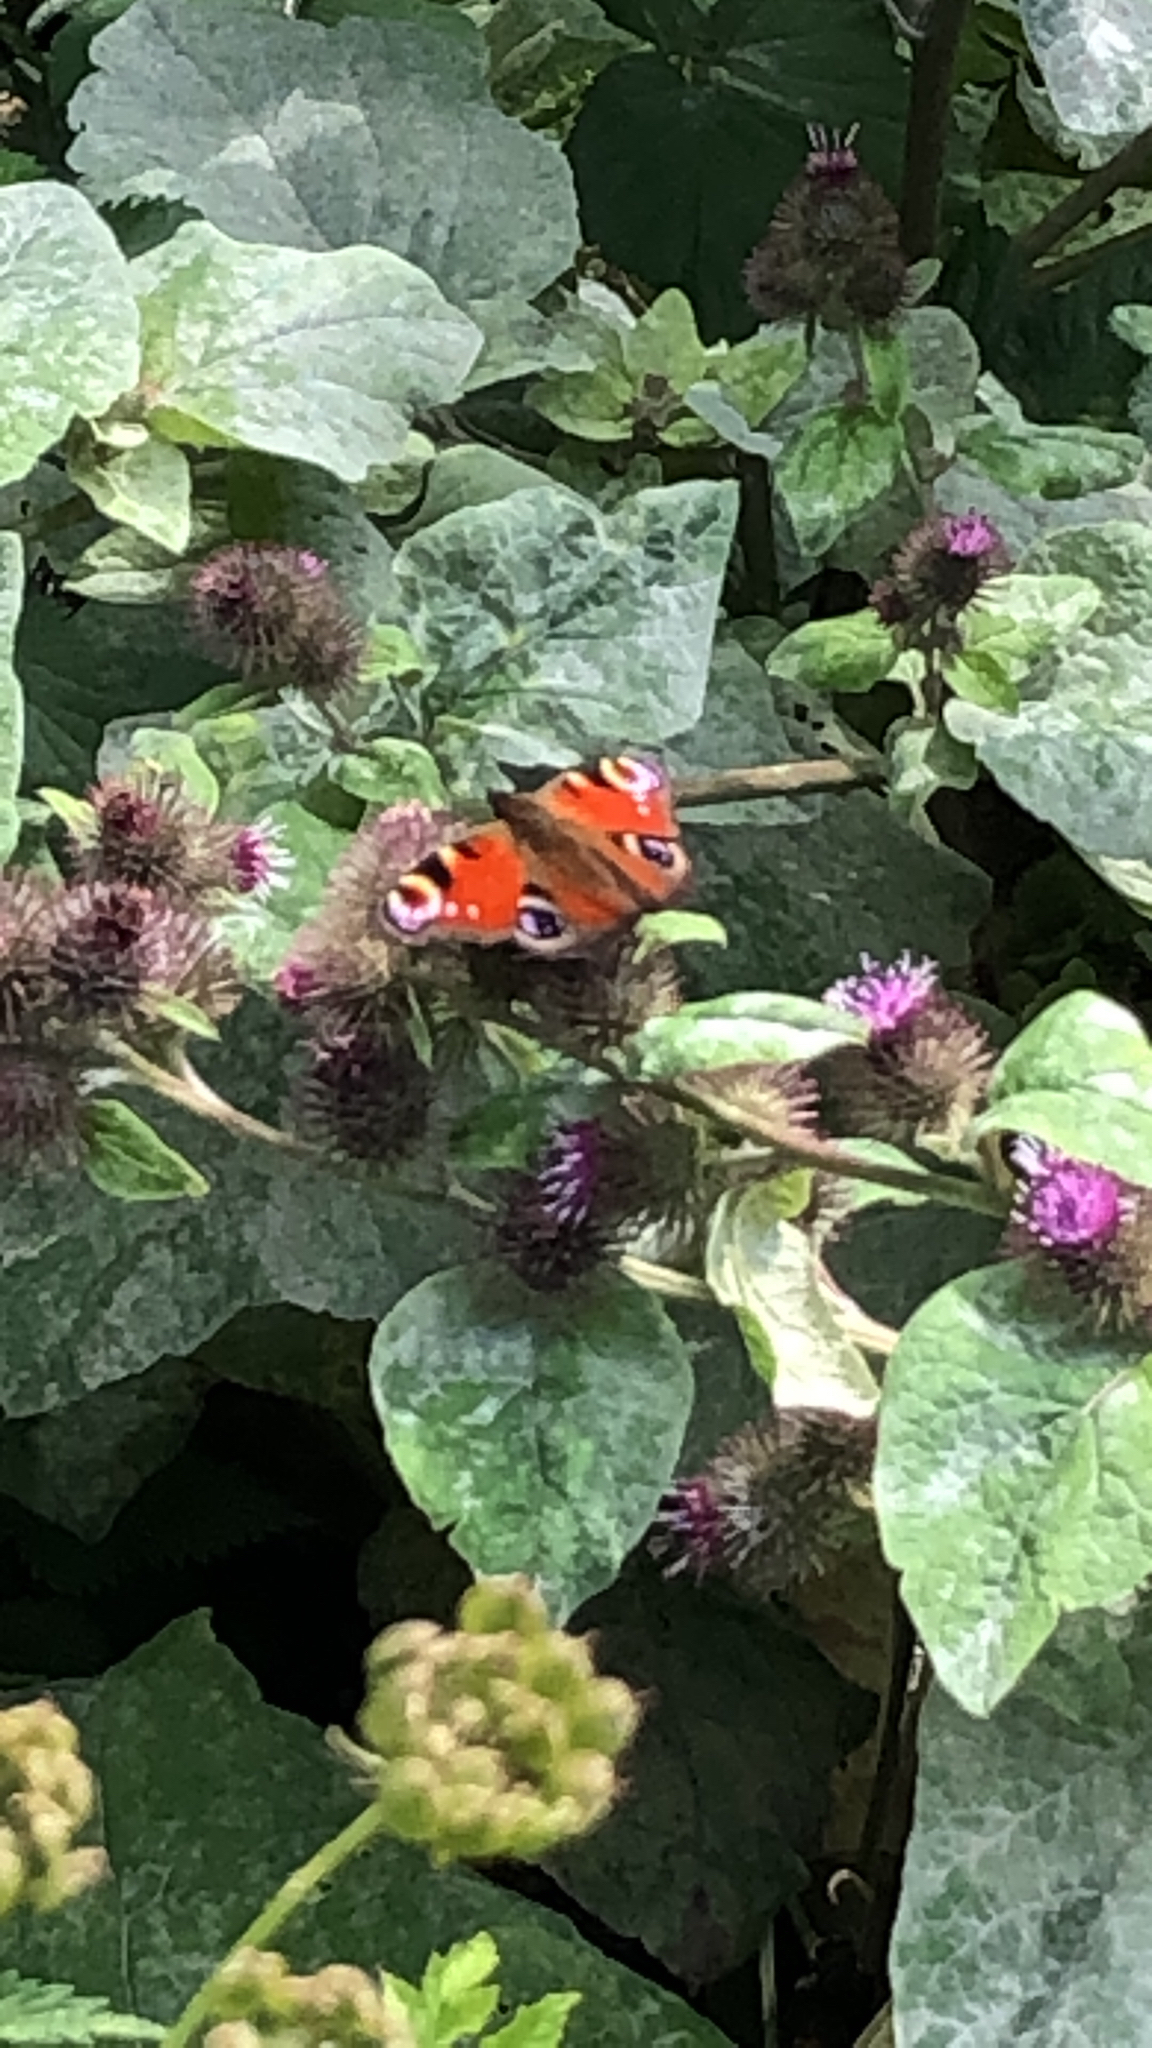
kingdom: Animalia
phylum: Arthropoda
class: Insecta
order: Lepidoptera
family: Nymphalidae
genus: Aglais
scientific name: Aglais io
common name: Peacock
